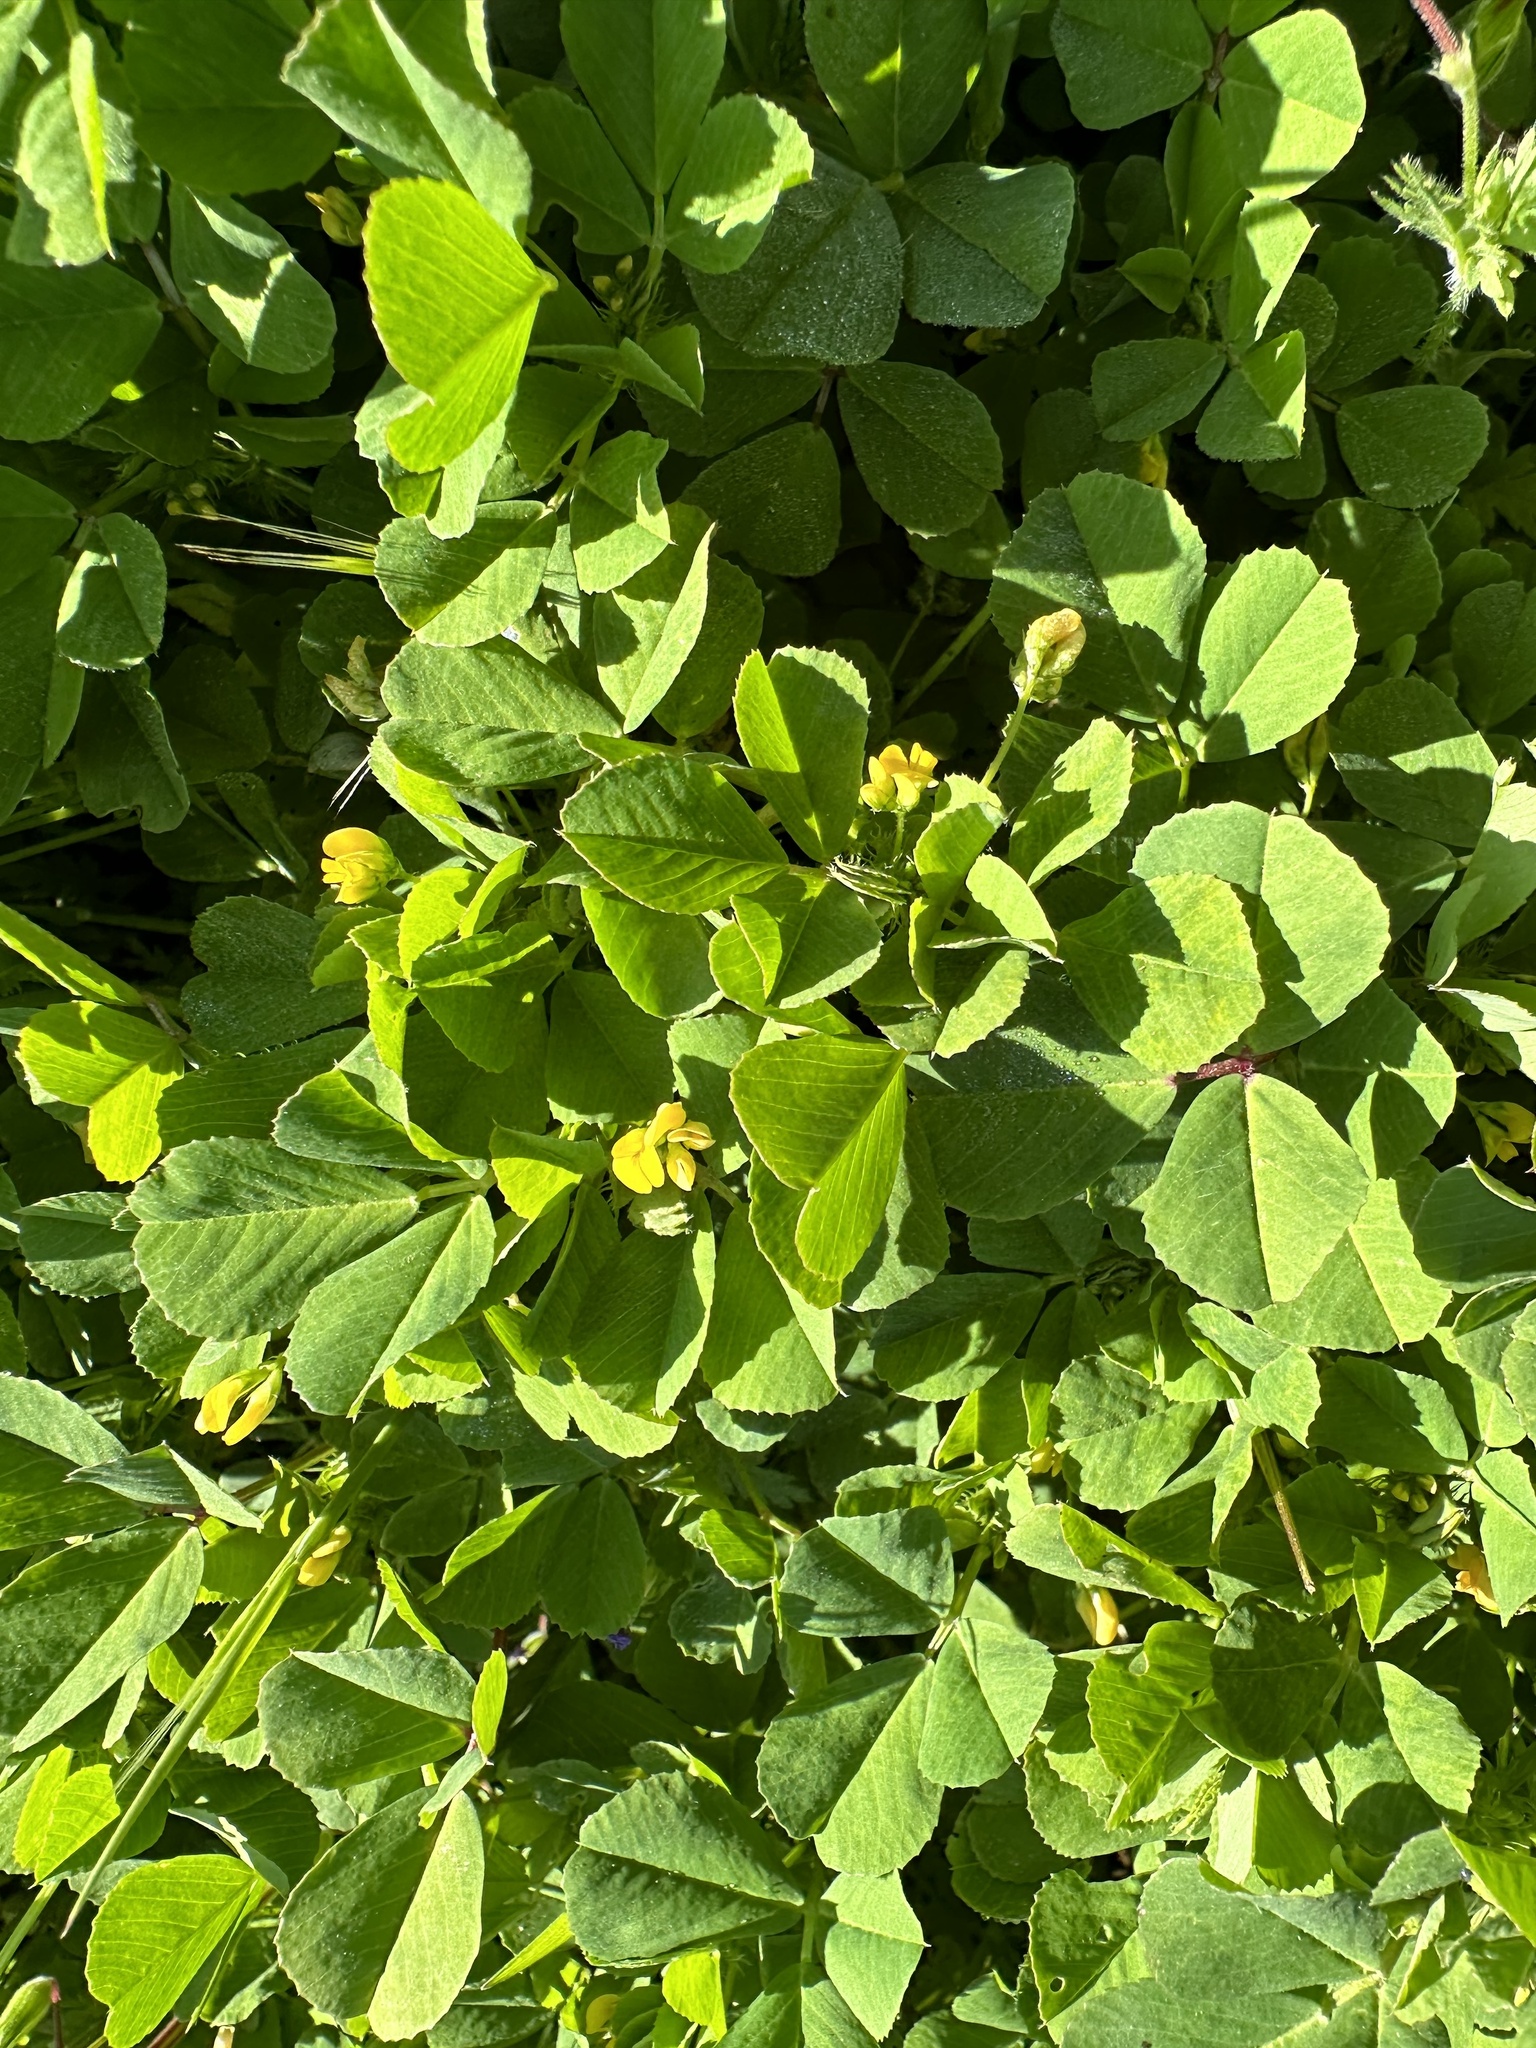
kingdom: Plantae
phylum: Tracheophyta
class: Magnoliopsida
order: Fabales
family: Fabaceae
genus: Medicago
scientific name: Medicago polymorpha
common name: Burclover
